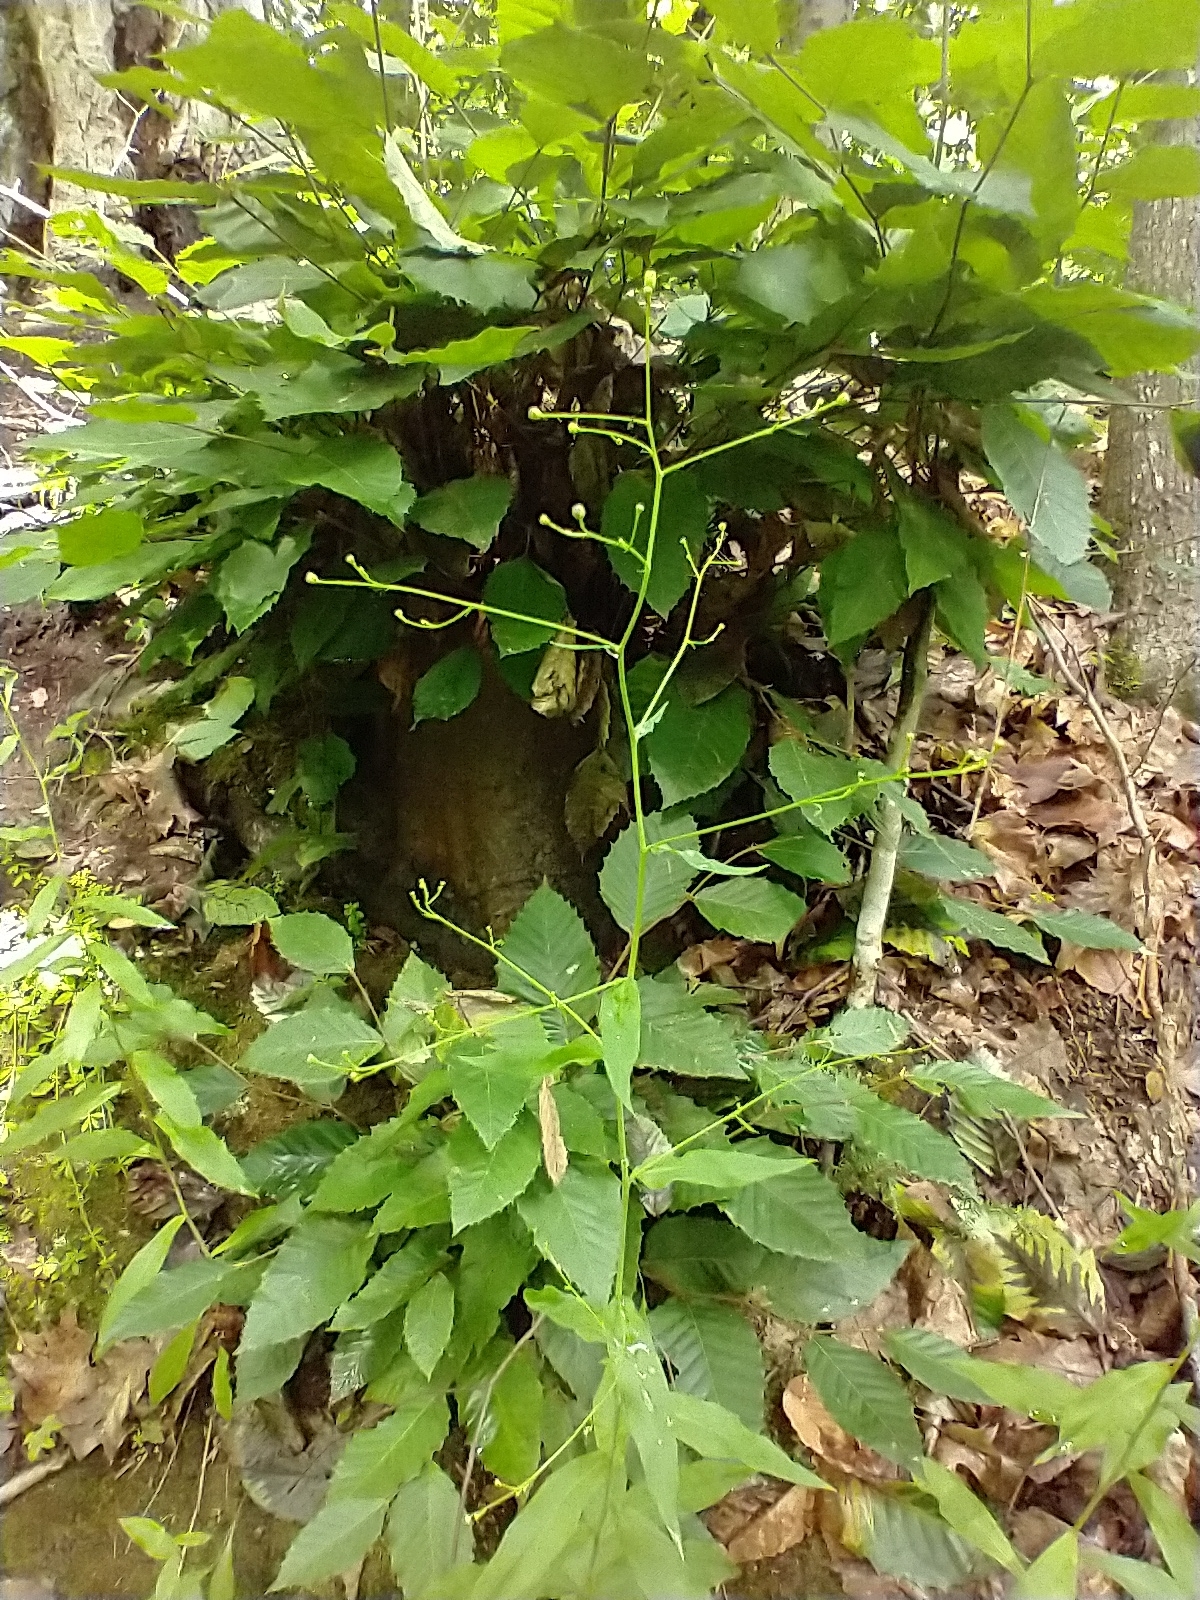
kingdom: Plantae
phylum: Tracheophyta
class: Magnoliopsida
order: Asterales
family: Asteraceae
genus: Hieracium
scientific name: Hieracium paniculatum
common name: Allegheny hawkweed
